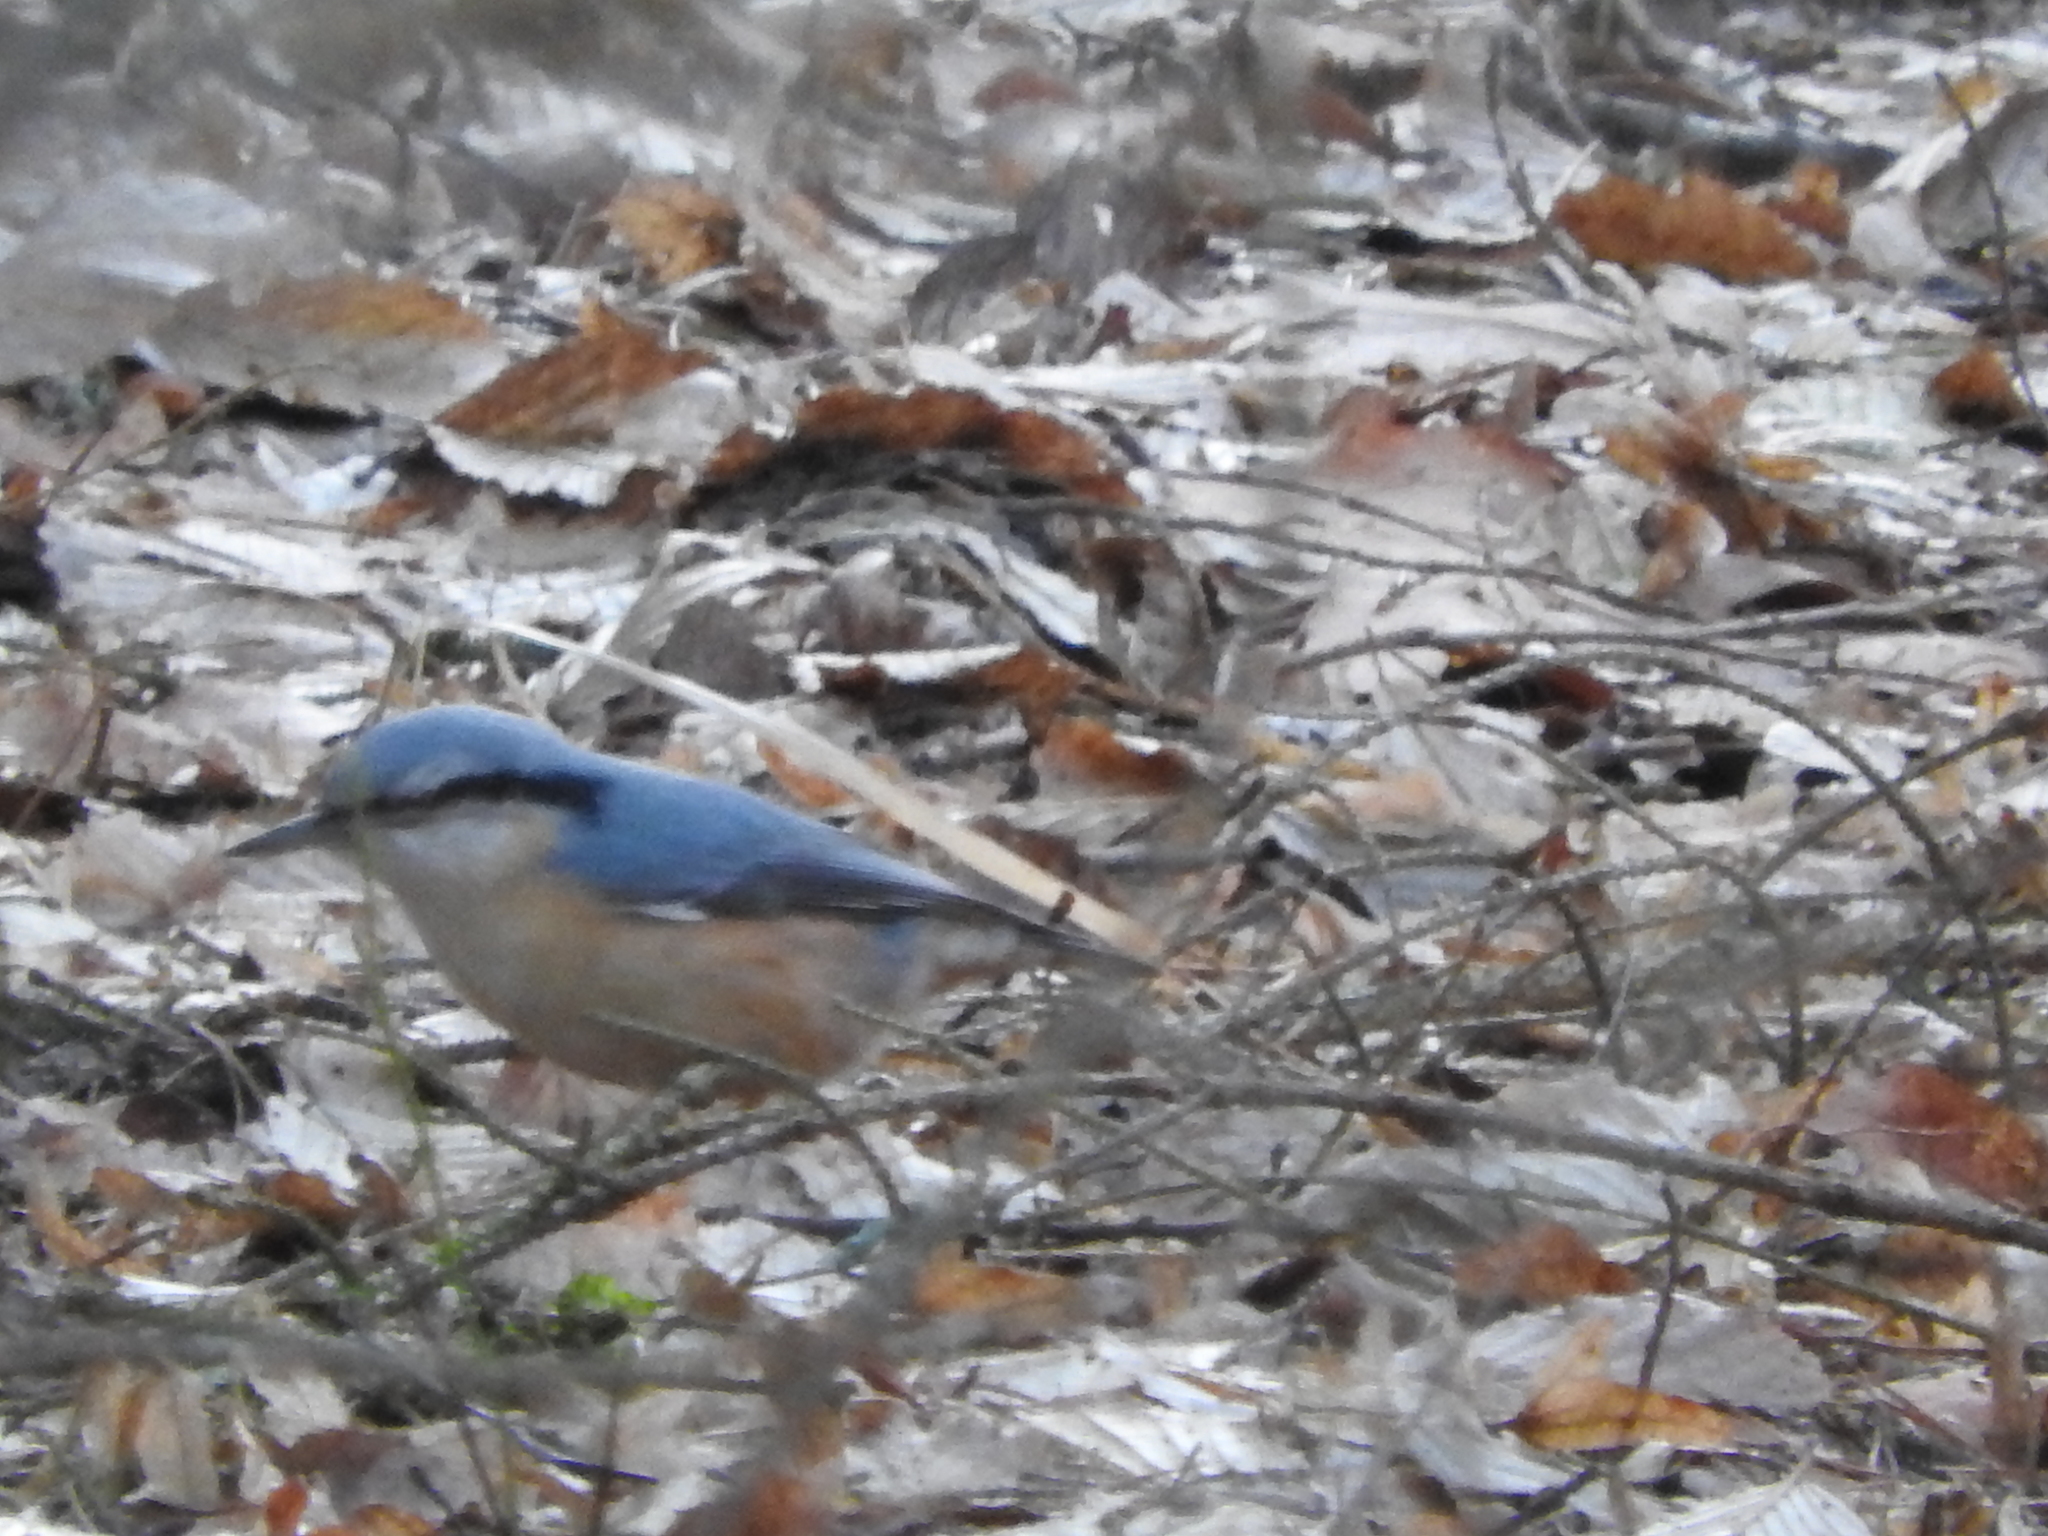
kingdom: Animalia
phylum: Chordata
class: Aves
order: Passeriformes
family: Sittidae
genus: Sitta
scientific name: Sitta europaea
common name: Eurasian nuthatch
